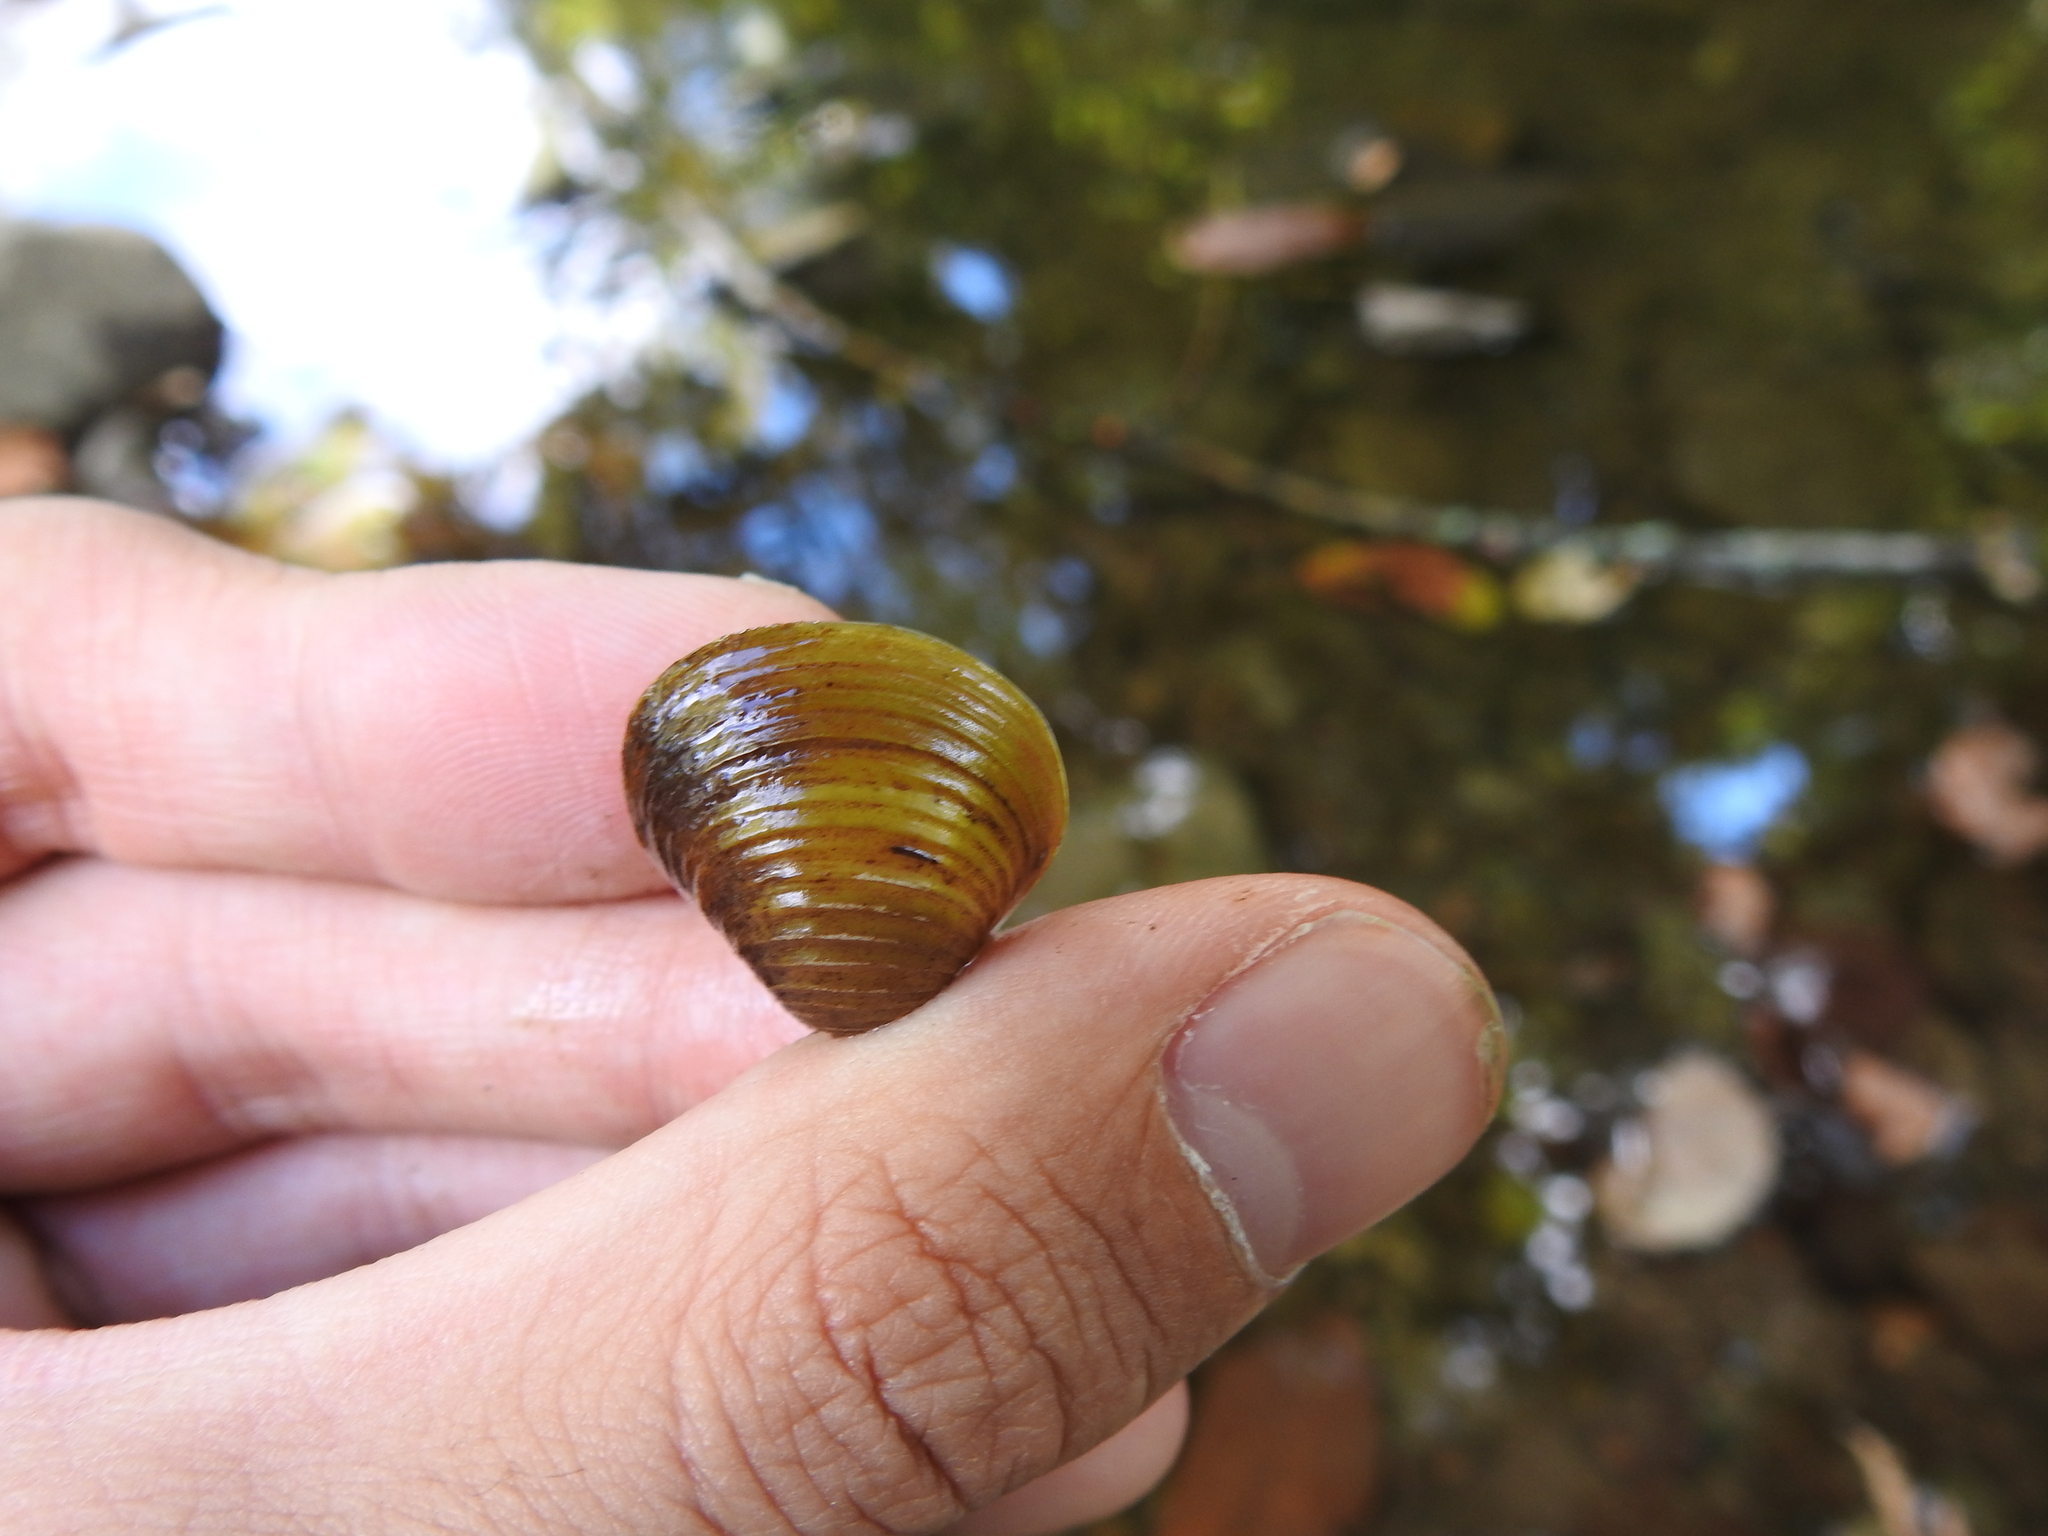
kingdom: Animalia
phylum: Mollusca
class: Bivalvia
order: Venerida
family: Cyrenidae
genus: Corbicula
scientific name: Corbicula fluminea
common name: Asian clam
